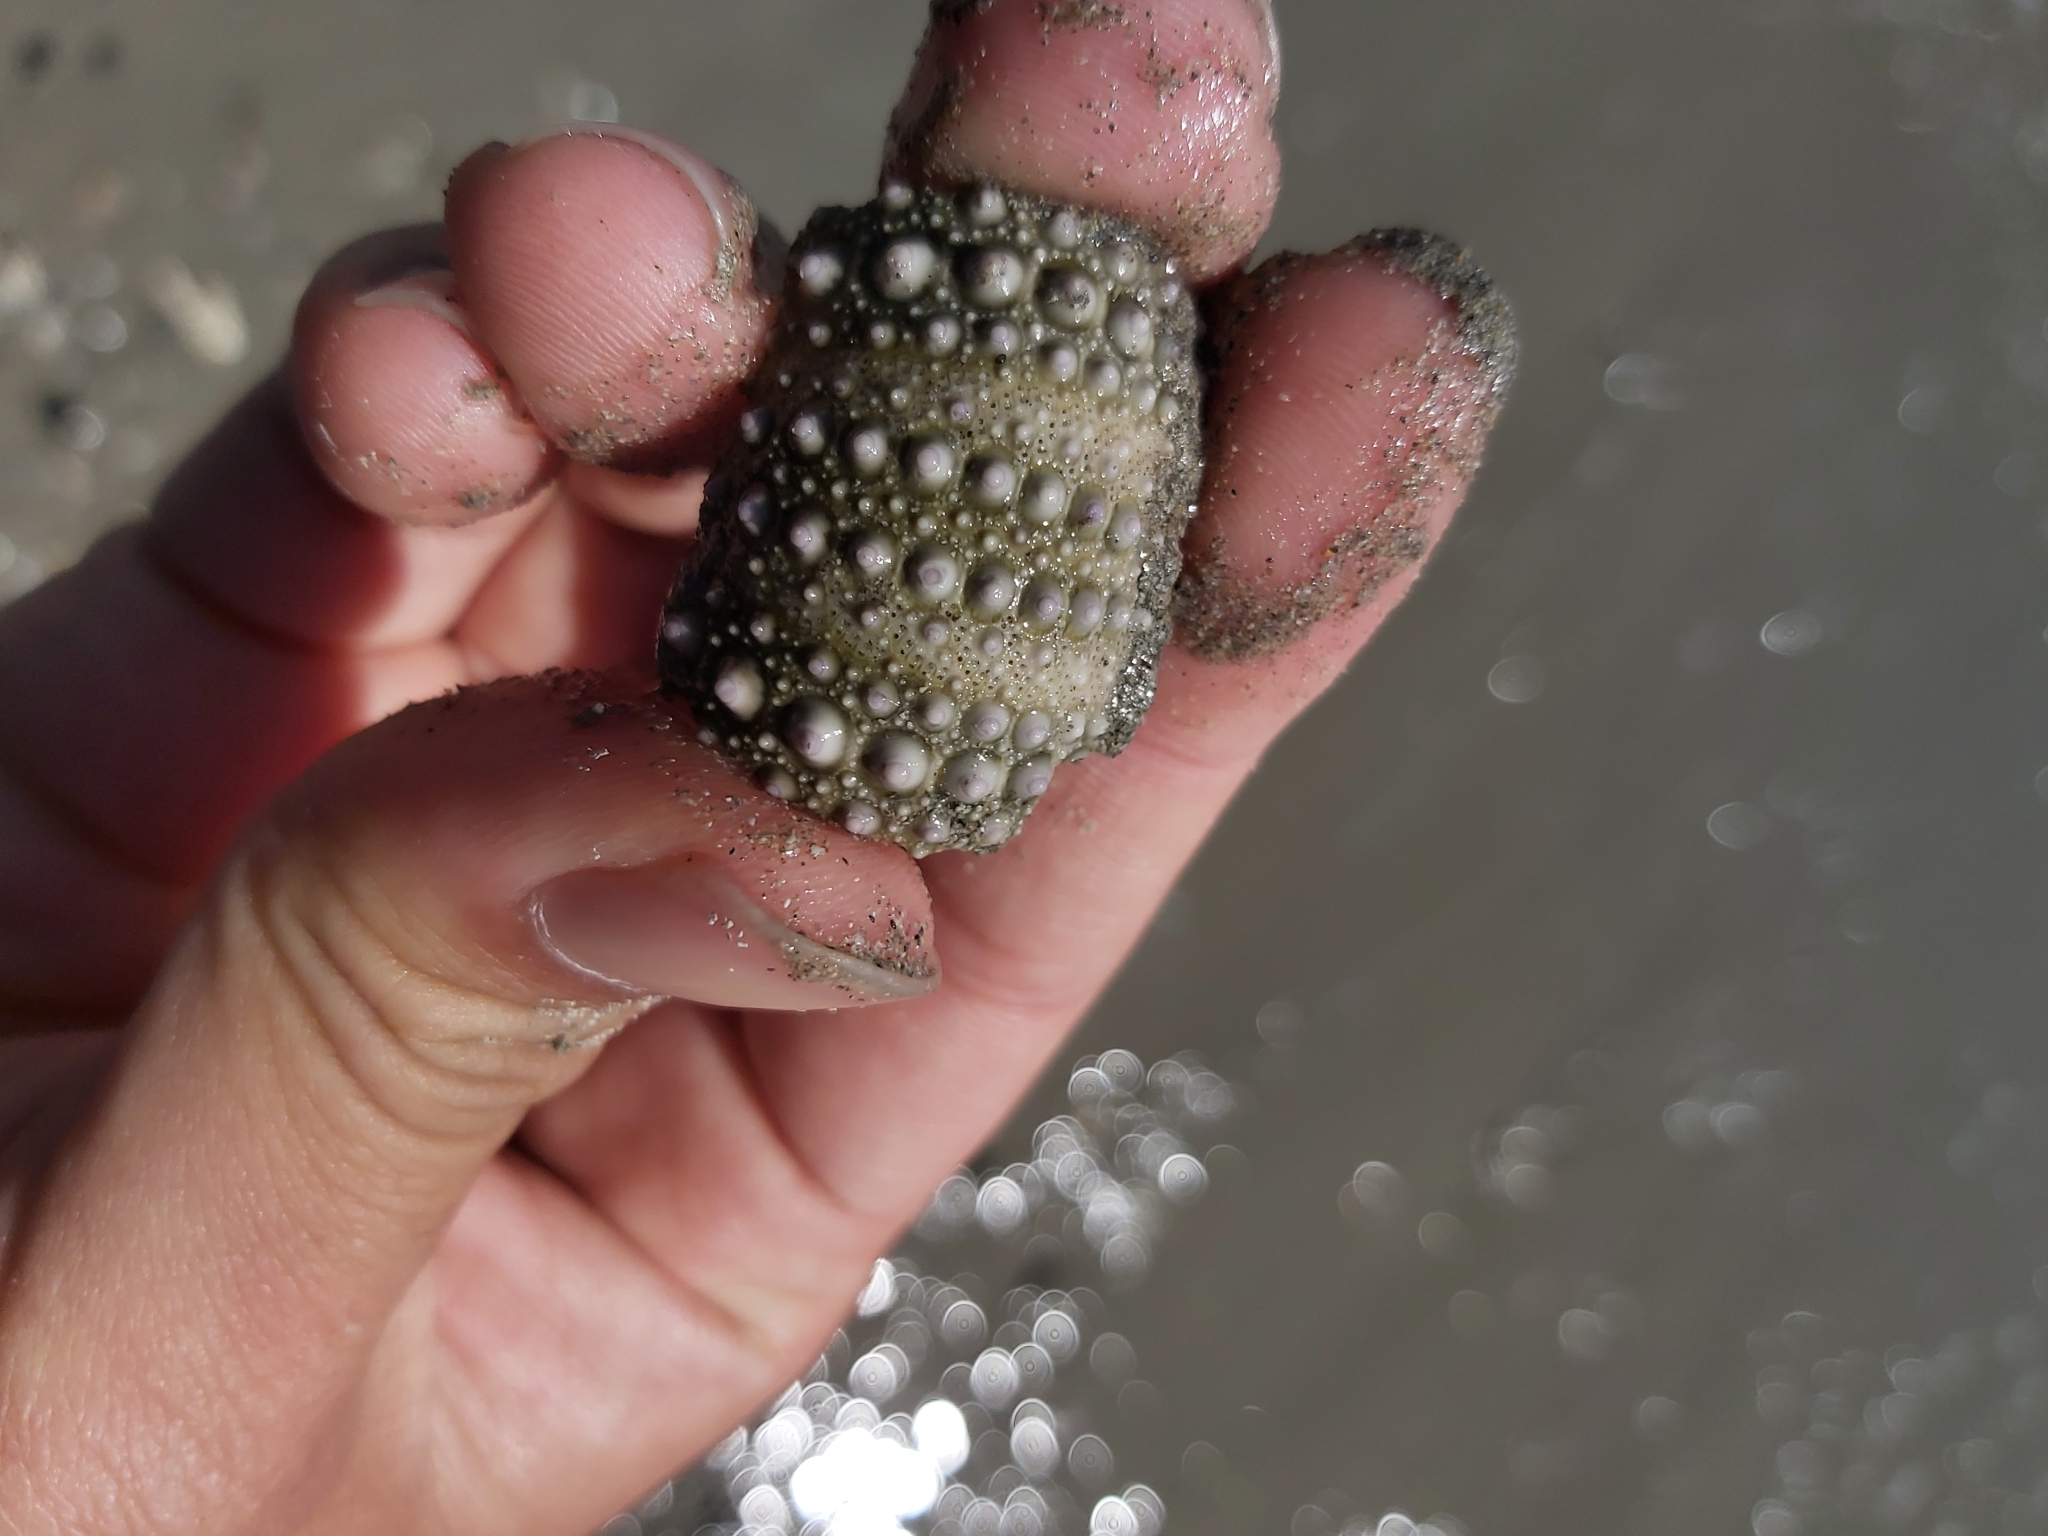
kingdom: Animalia
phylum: Echinodermata
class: Echinoidea
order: Camarodonta
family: Echinometridae
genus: Heliocidaris
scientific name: Heliocidaris erythrogramma
